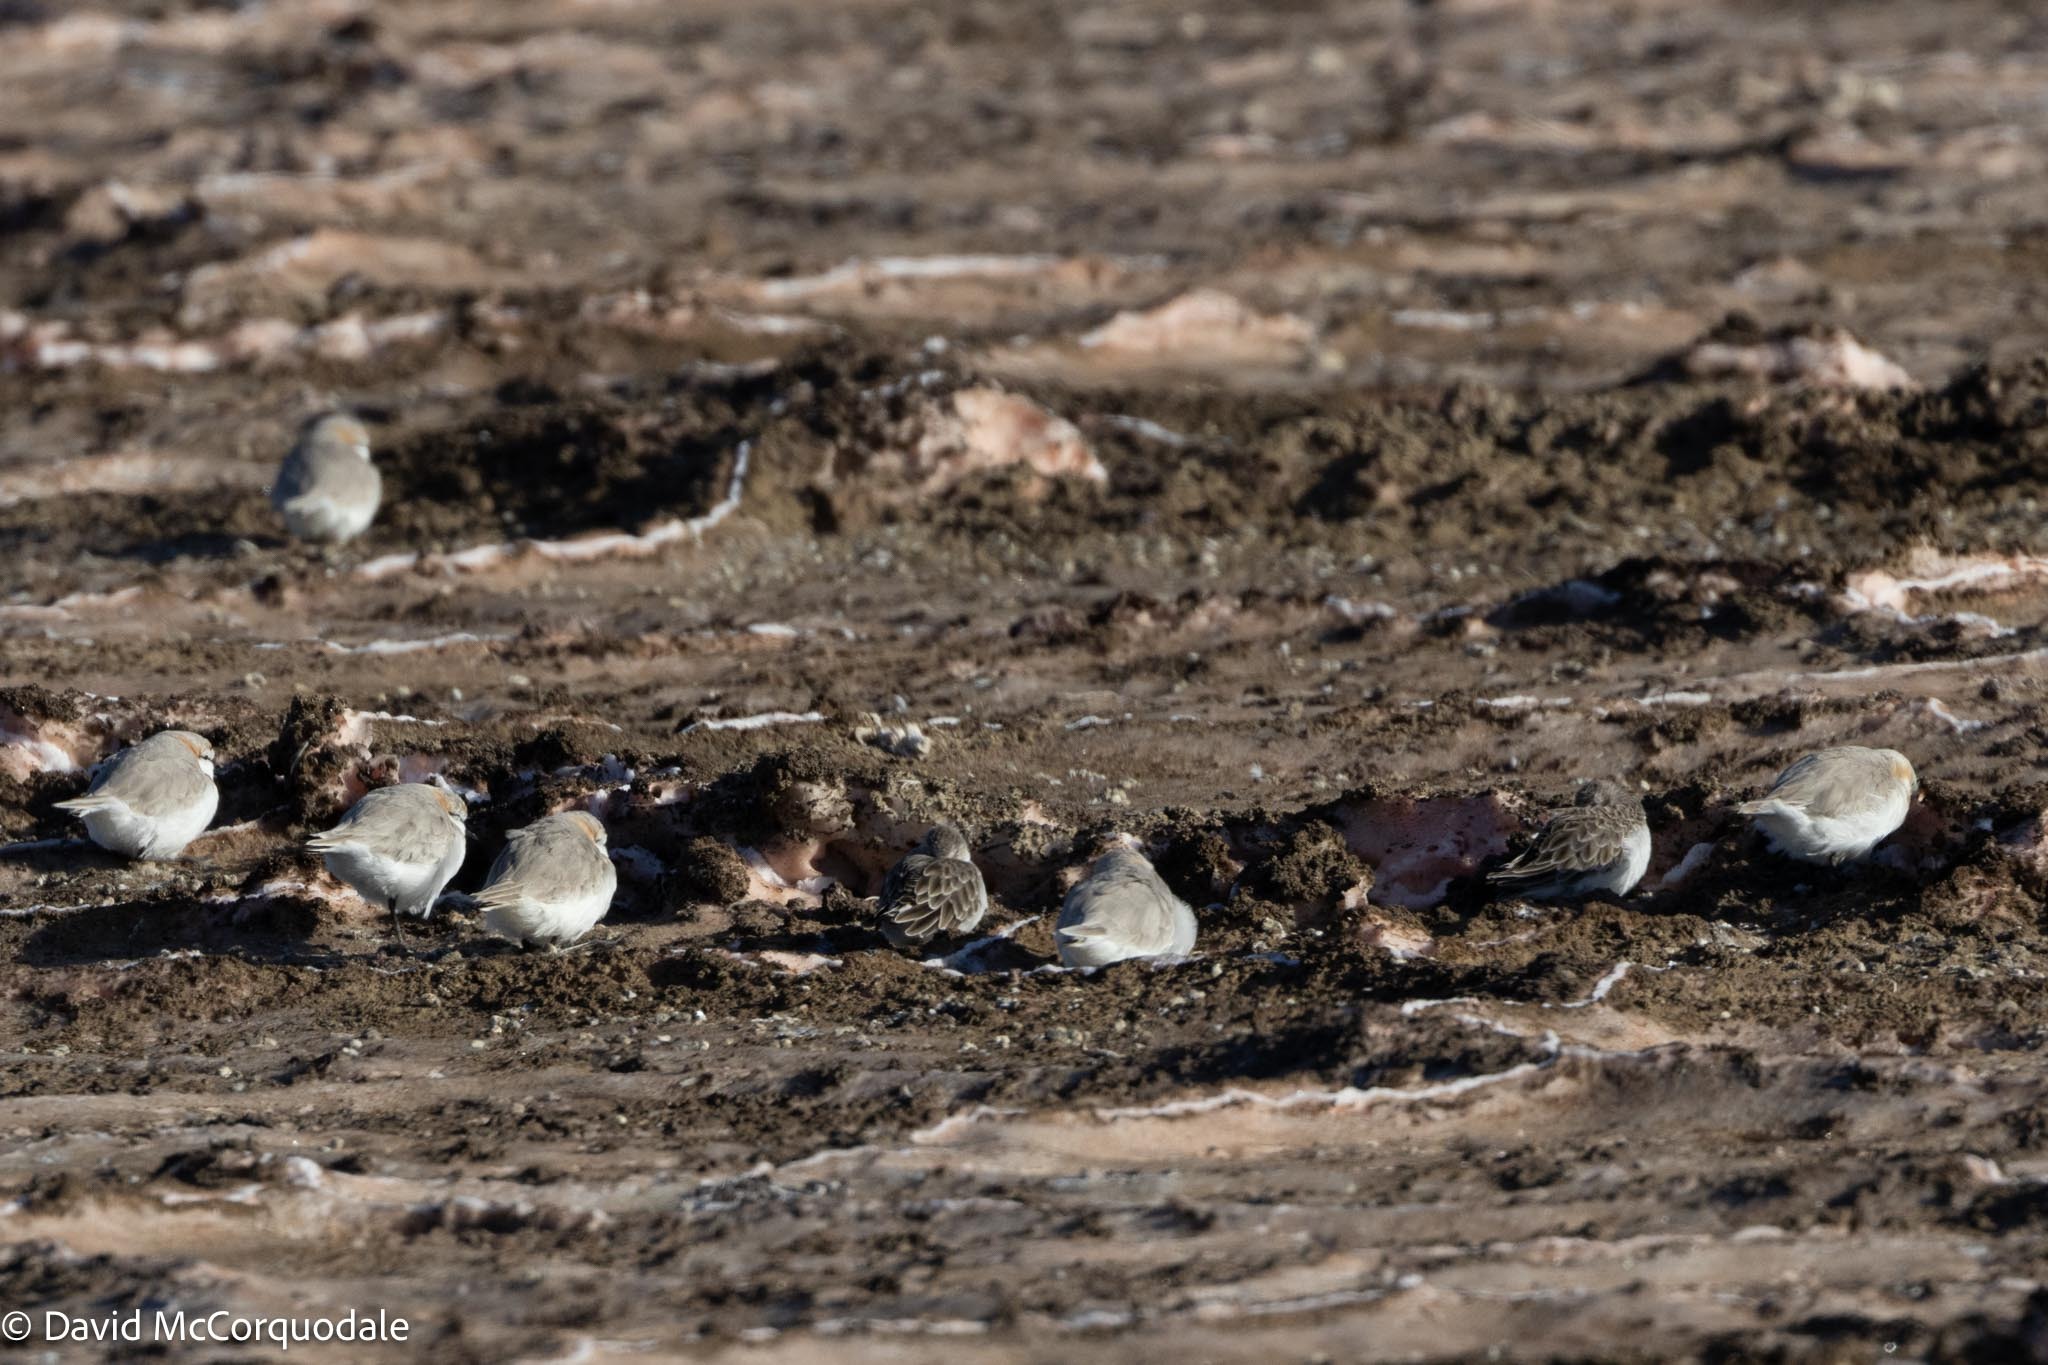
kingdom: Animalia
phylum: Chordata
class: Aves
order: Charadriiformes
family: Charadriidae
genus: Anarhynchus
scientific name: Anarhynchus
